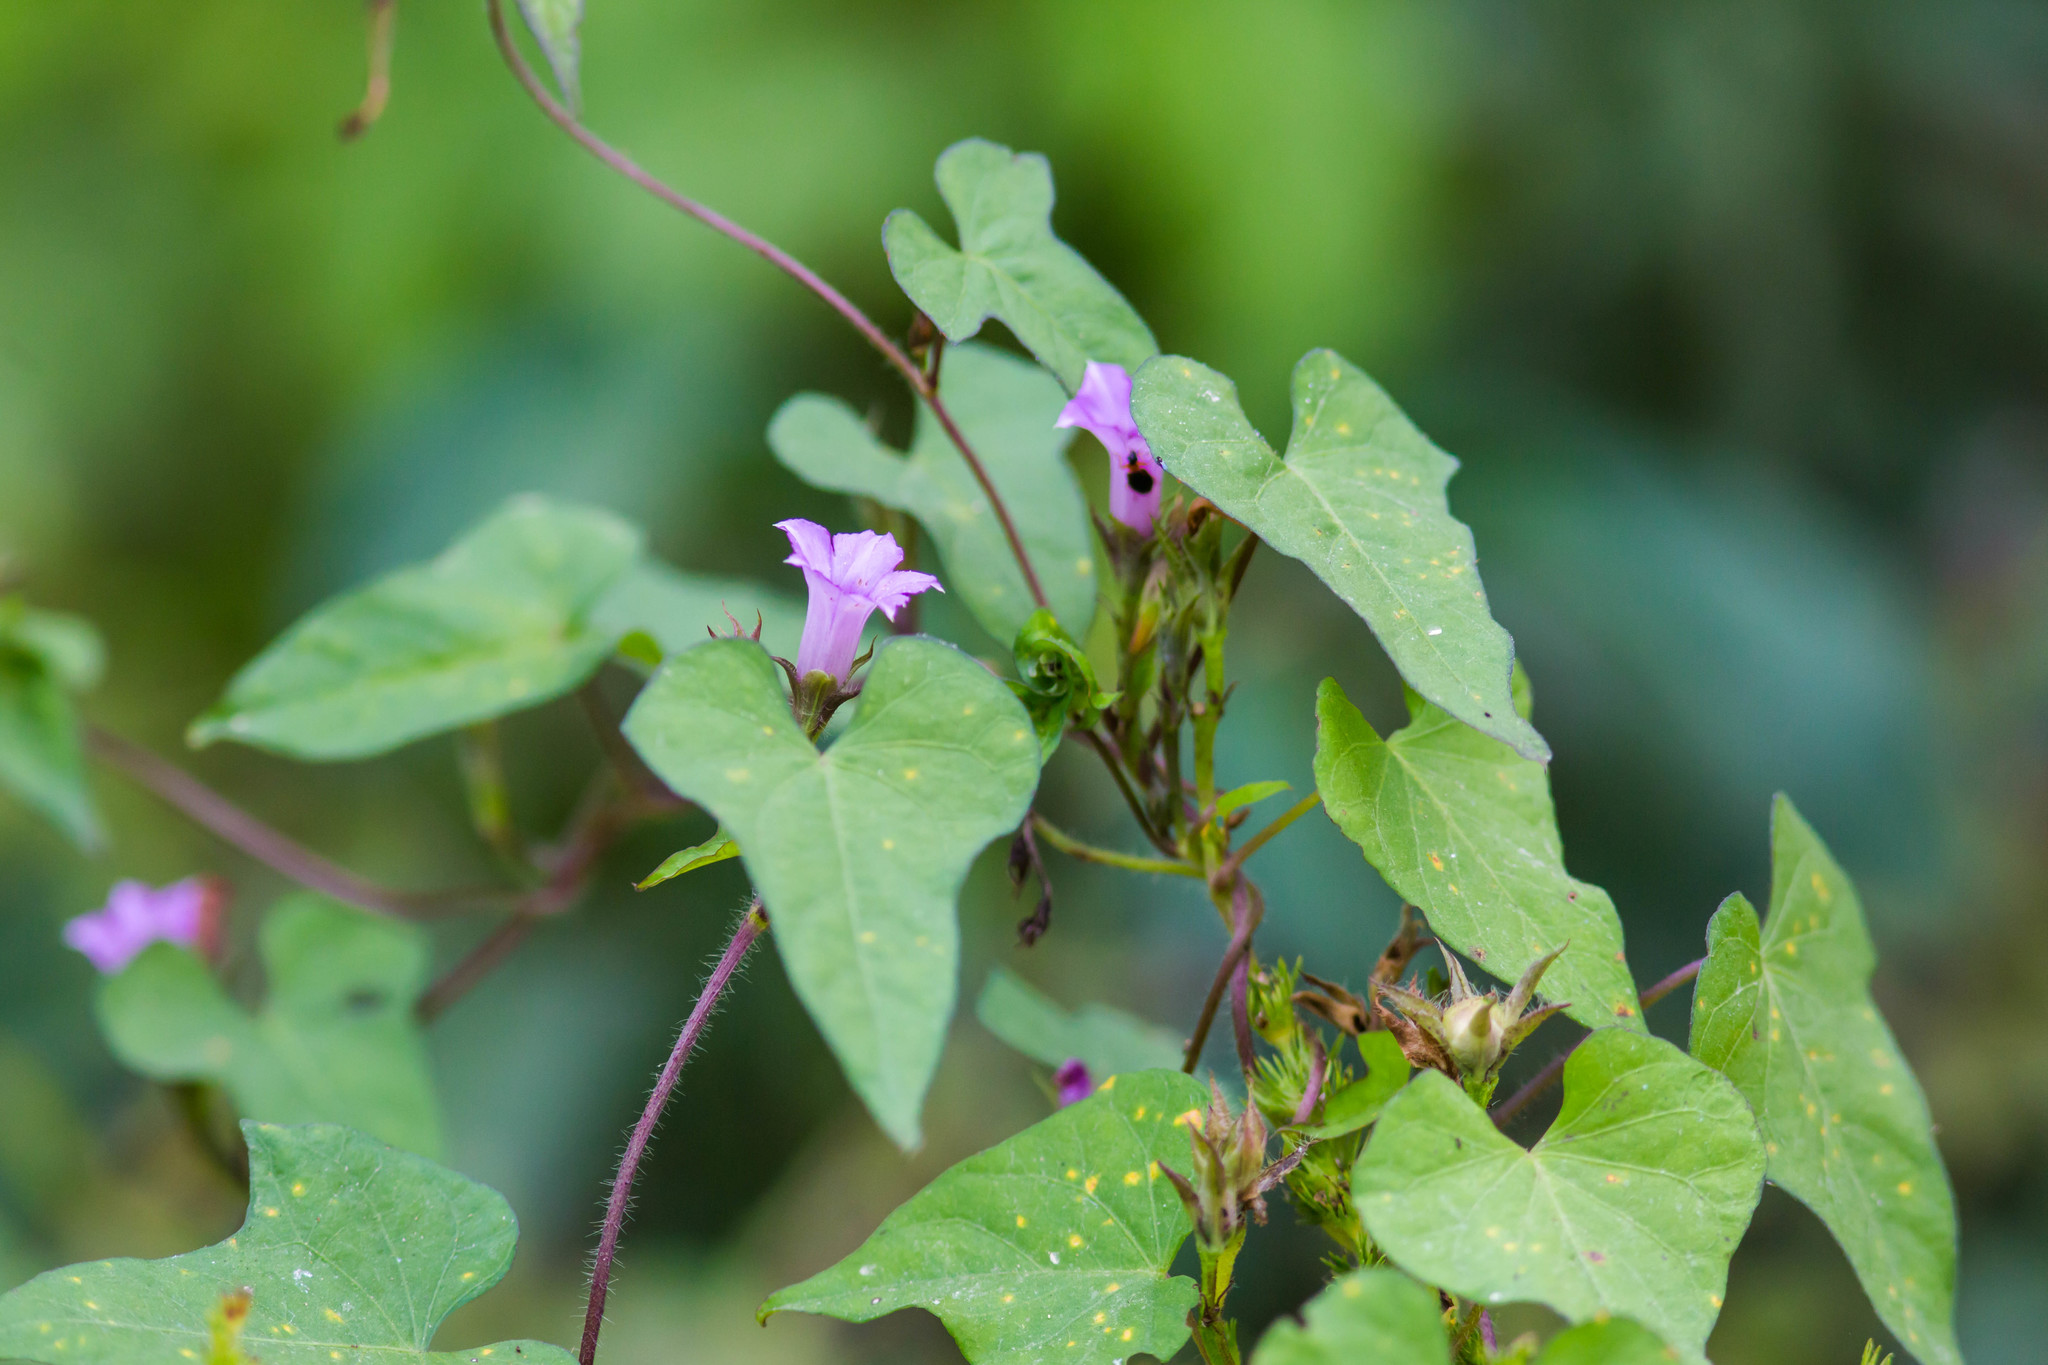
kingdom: Plantae
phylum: Tracheophyta
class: Magnoliopsida
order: Solanales
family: Convolvulaceae
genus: Ipomoea
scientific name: Ipomoea triloba
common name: Little-bell
